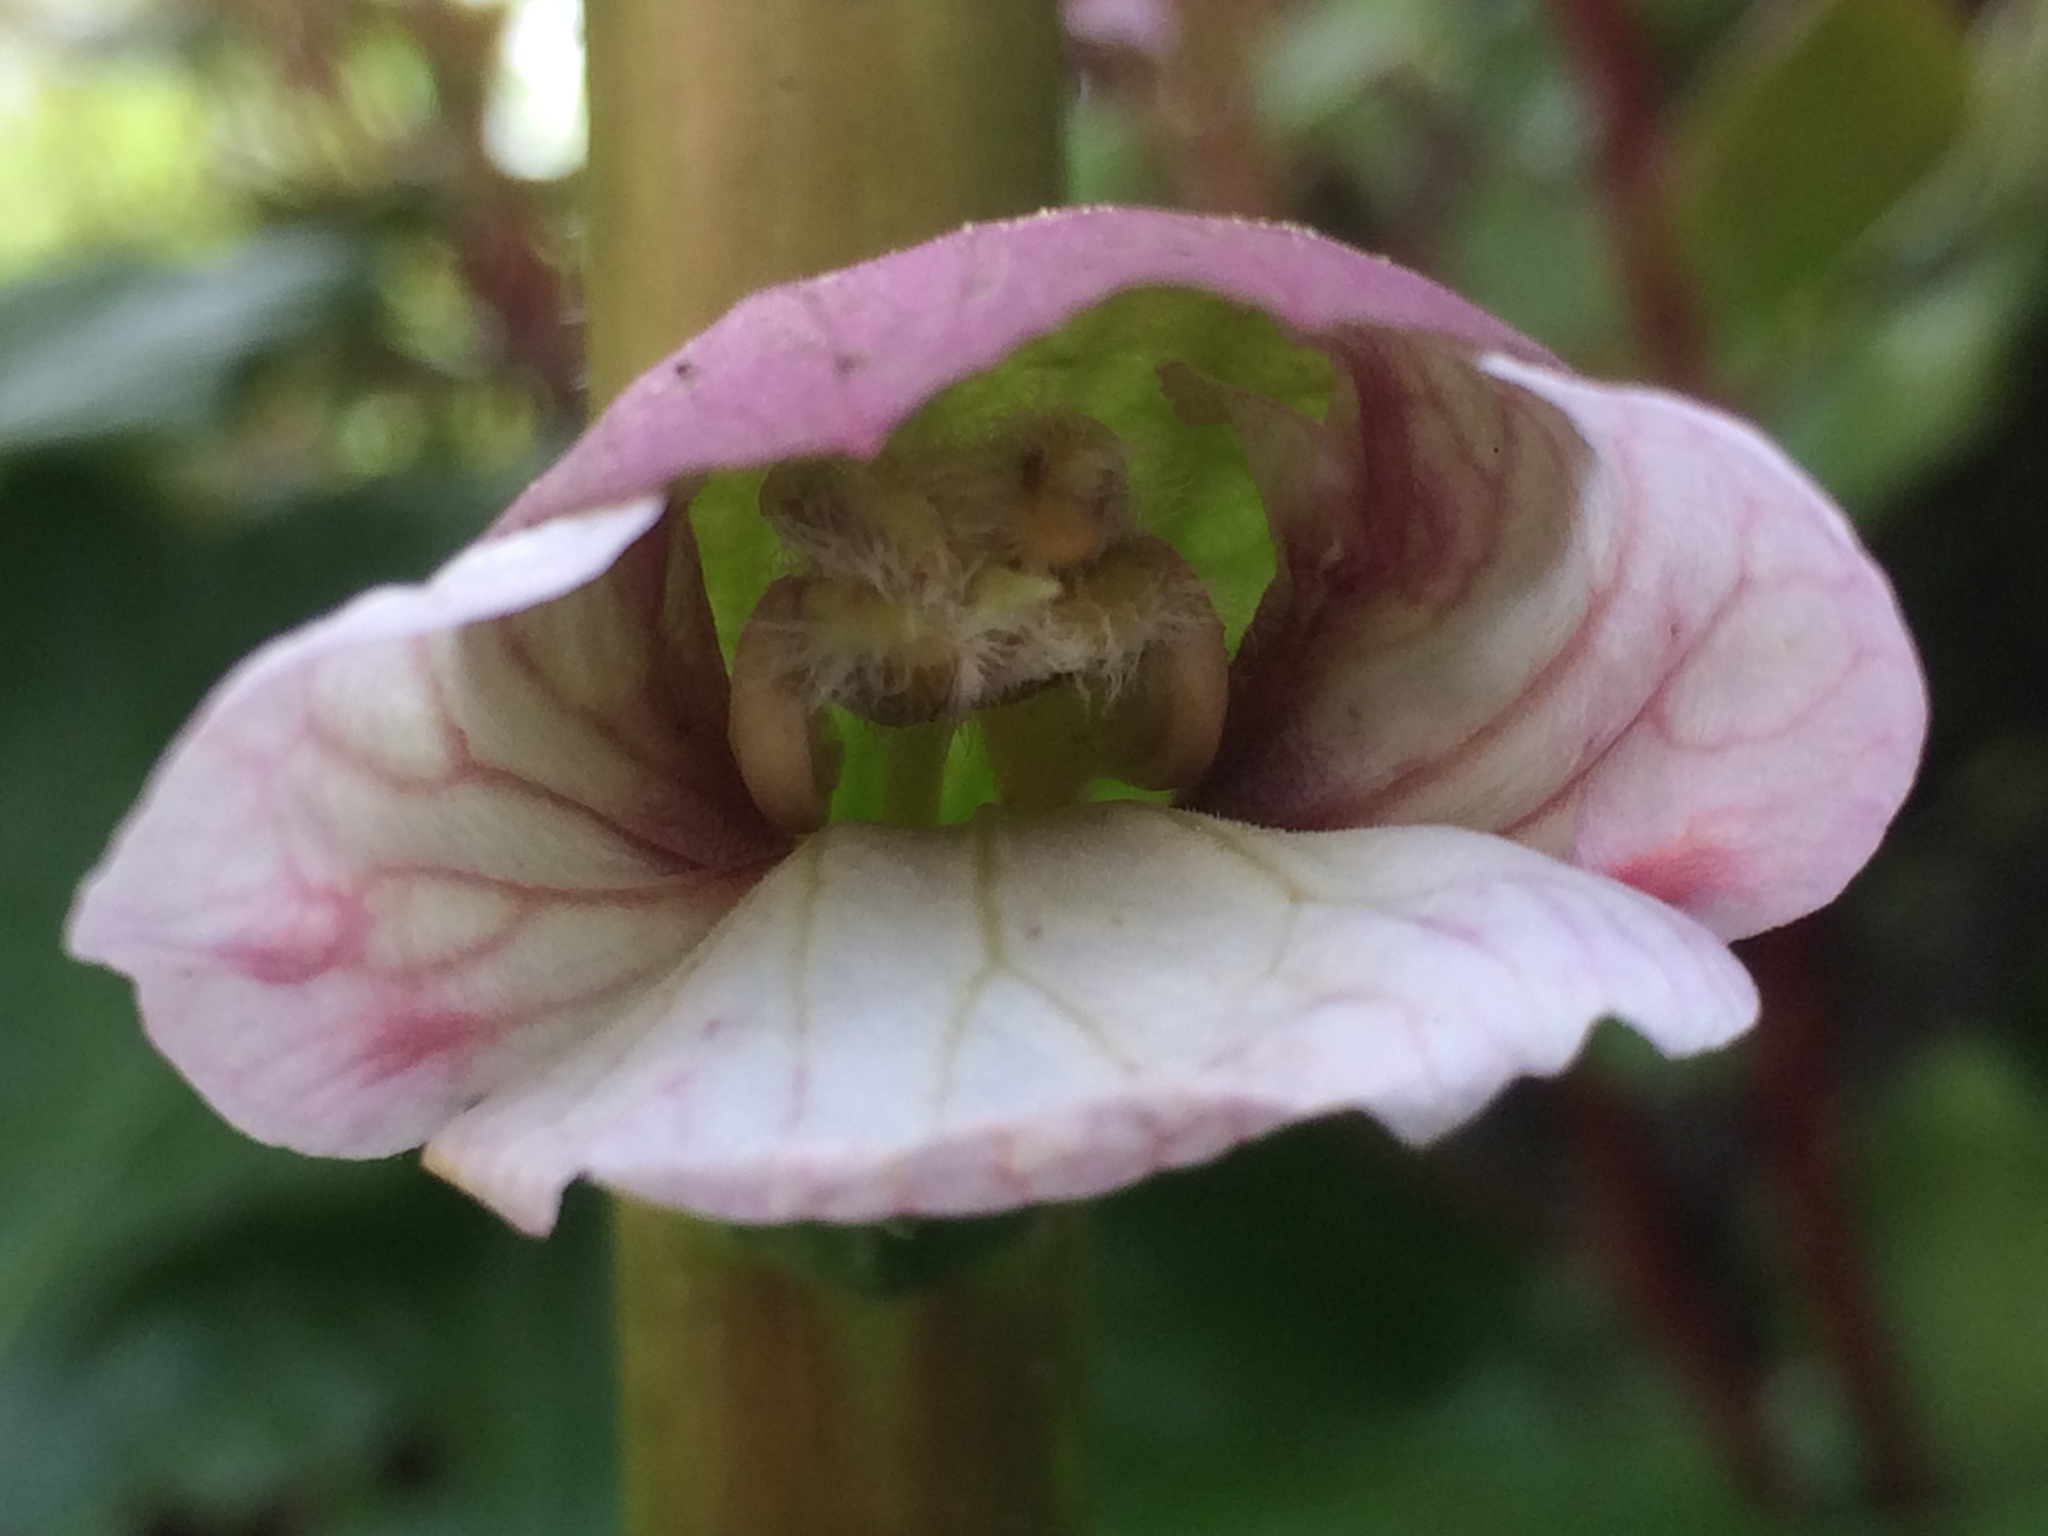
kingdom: Plantae
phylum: Tracheophyta
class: Magnoliopsida
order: Lamiales
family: Acanthaceae
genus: Acanthus
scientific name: Acanthus mollis
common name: Bear's-breech
